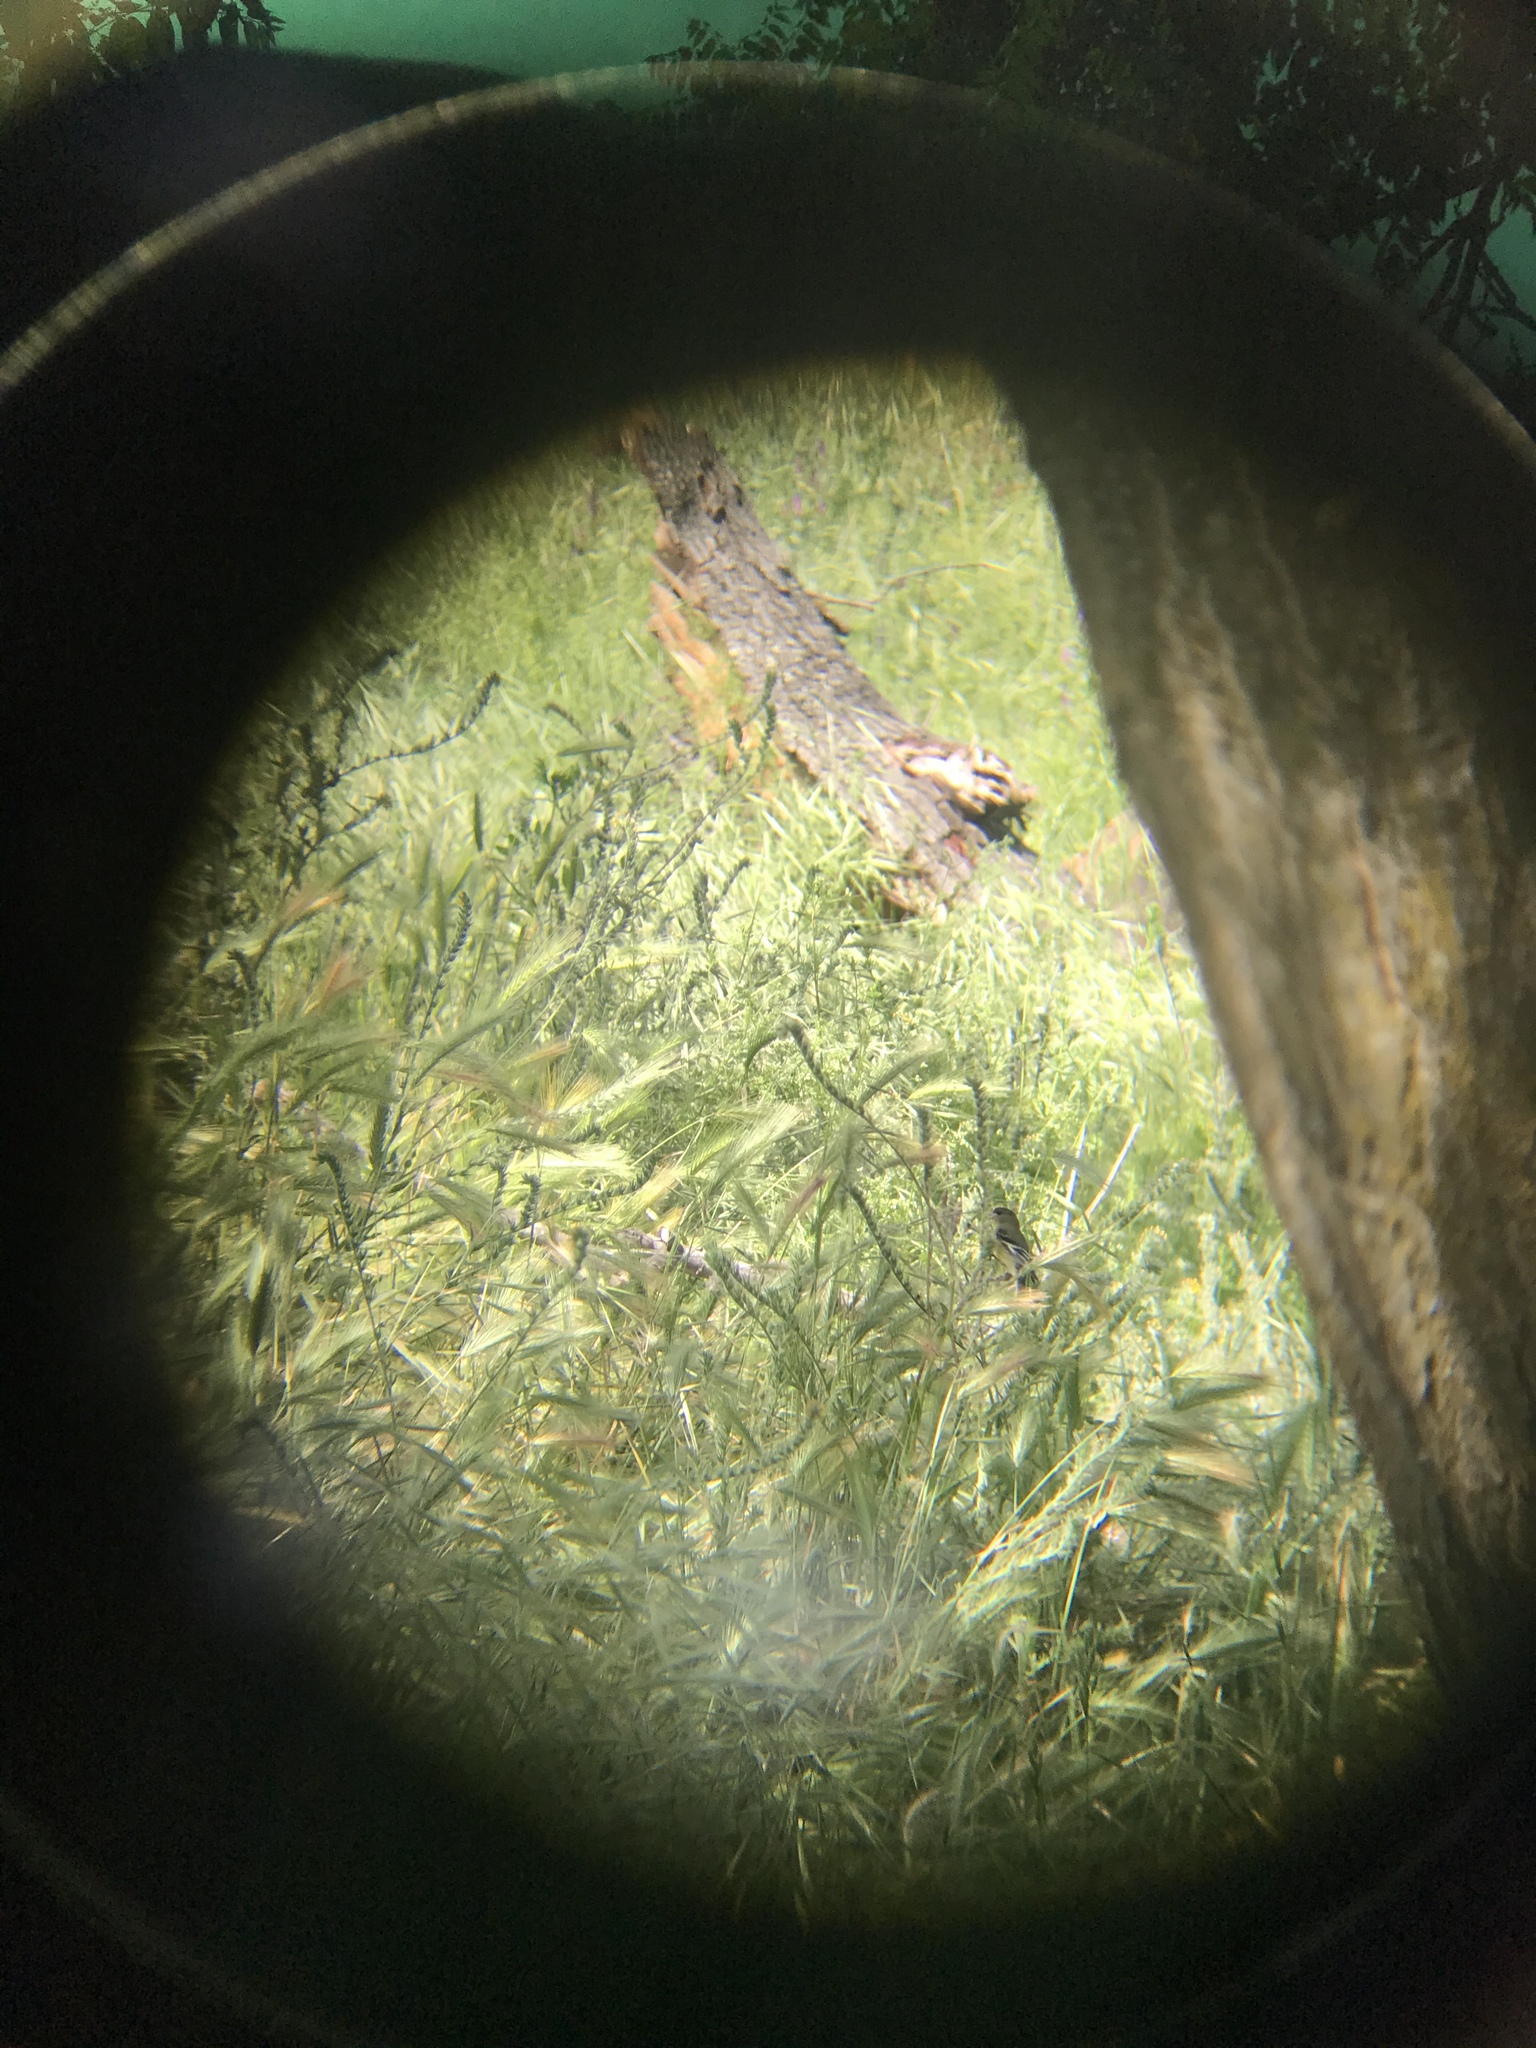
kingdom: Animalia
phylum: Chordata
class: Aves
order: Passeriformes
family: Fringillidae
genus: Spinus
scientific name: Spinus psaltria
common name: Lesser goldfinch
